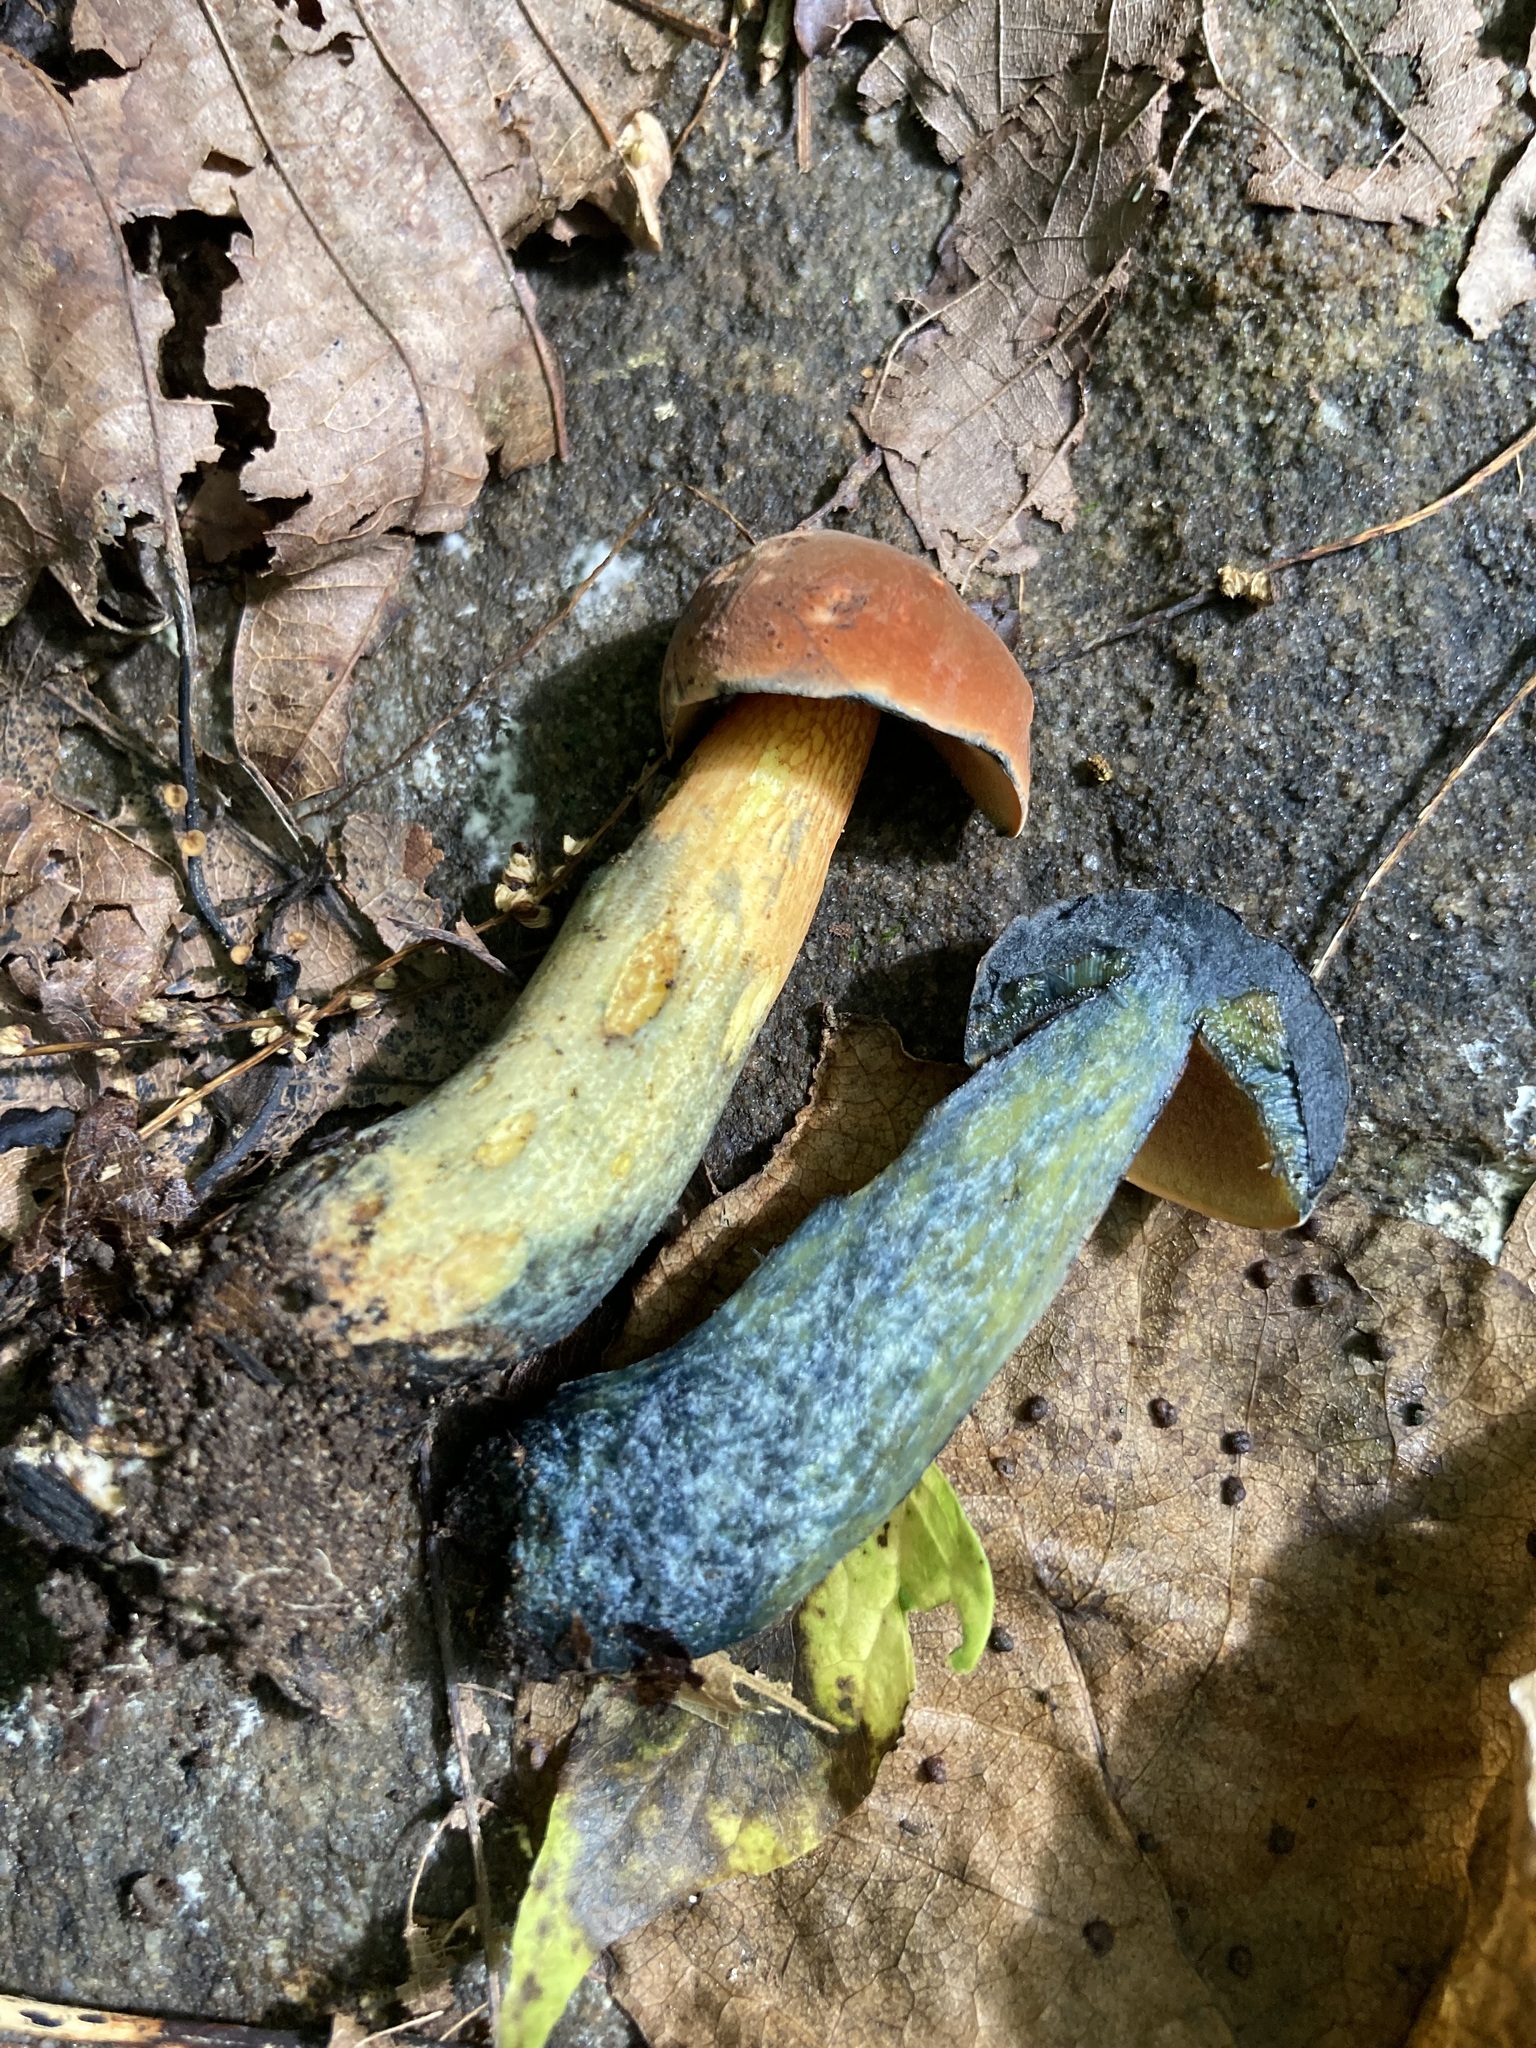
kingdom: Fungi
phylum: Basidiomycota
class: Agaricomycetes
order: Boletales
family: Boletaceae
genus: Boletus
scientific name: Boletus subvelutipes
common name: Red-mouth bolete
